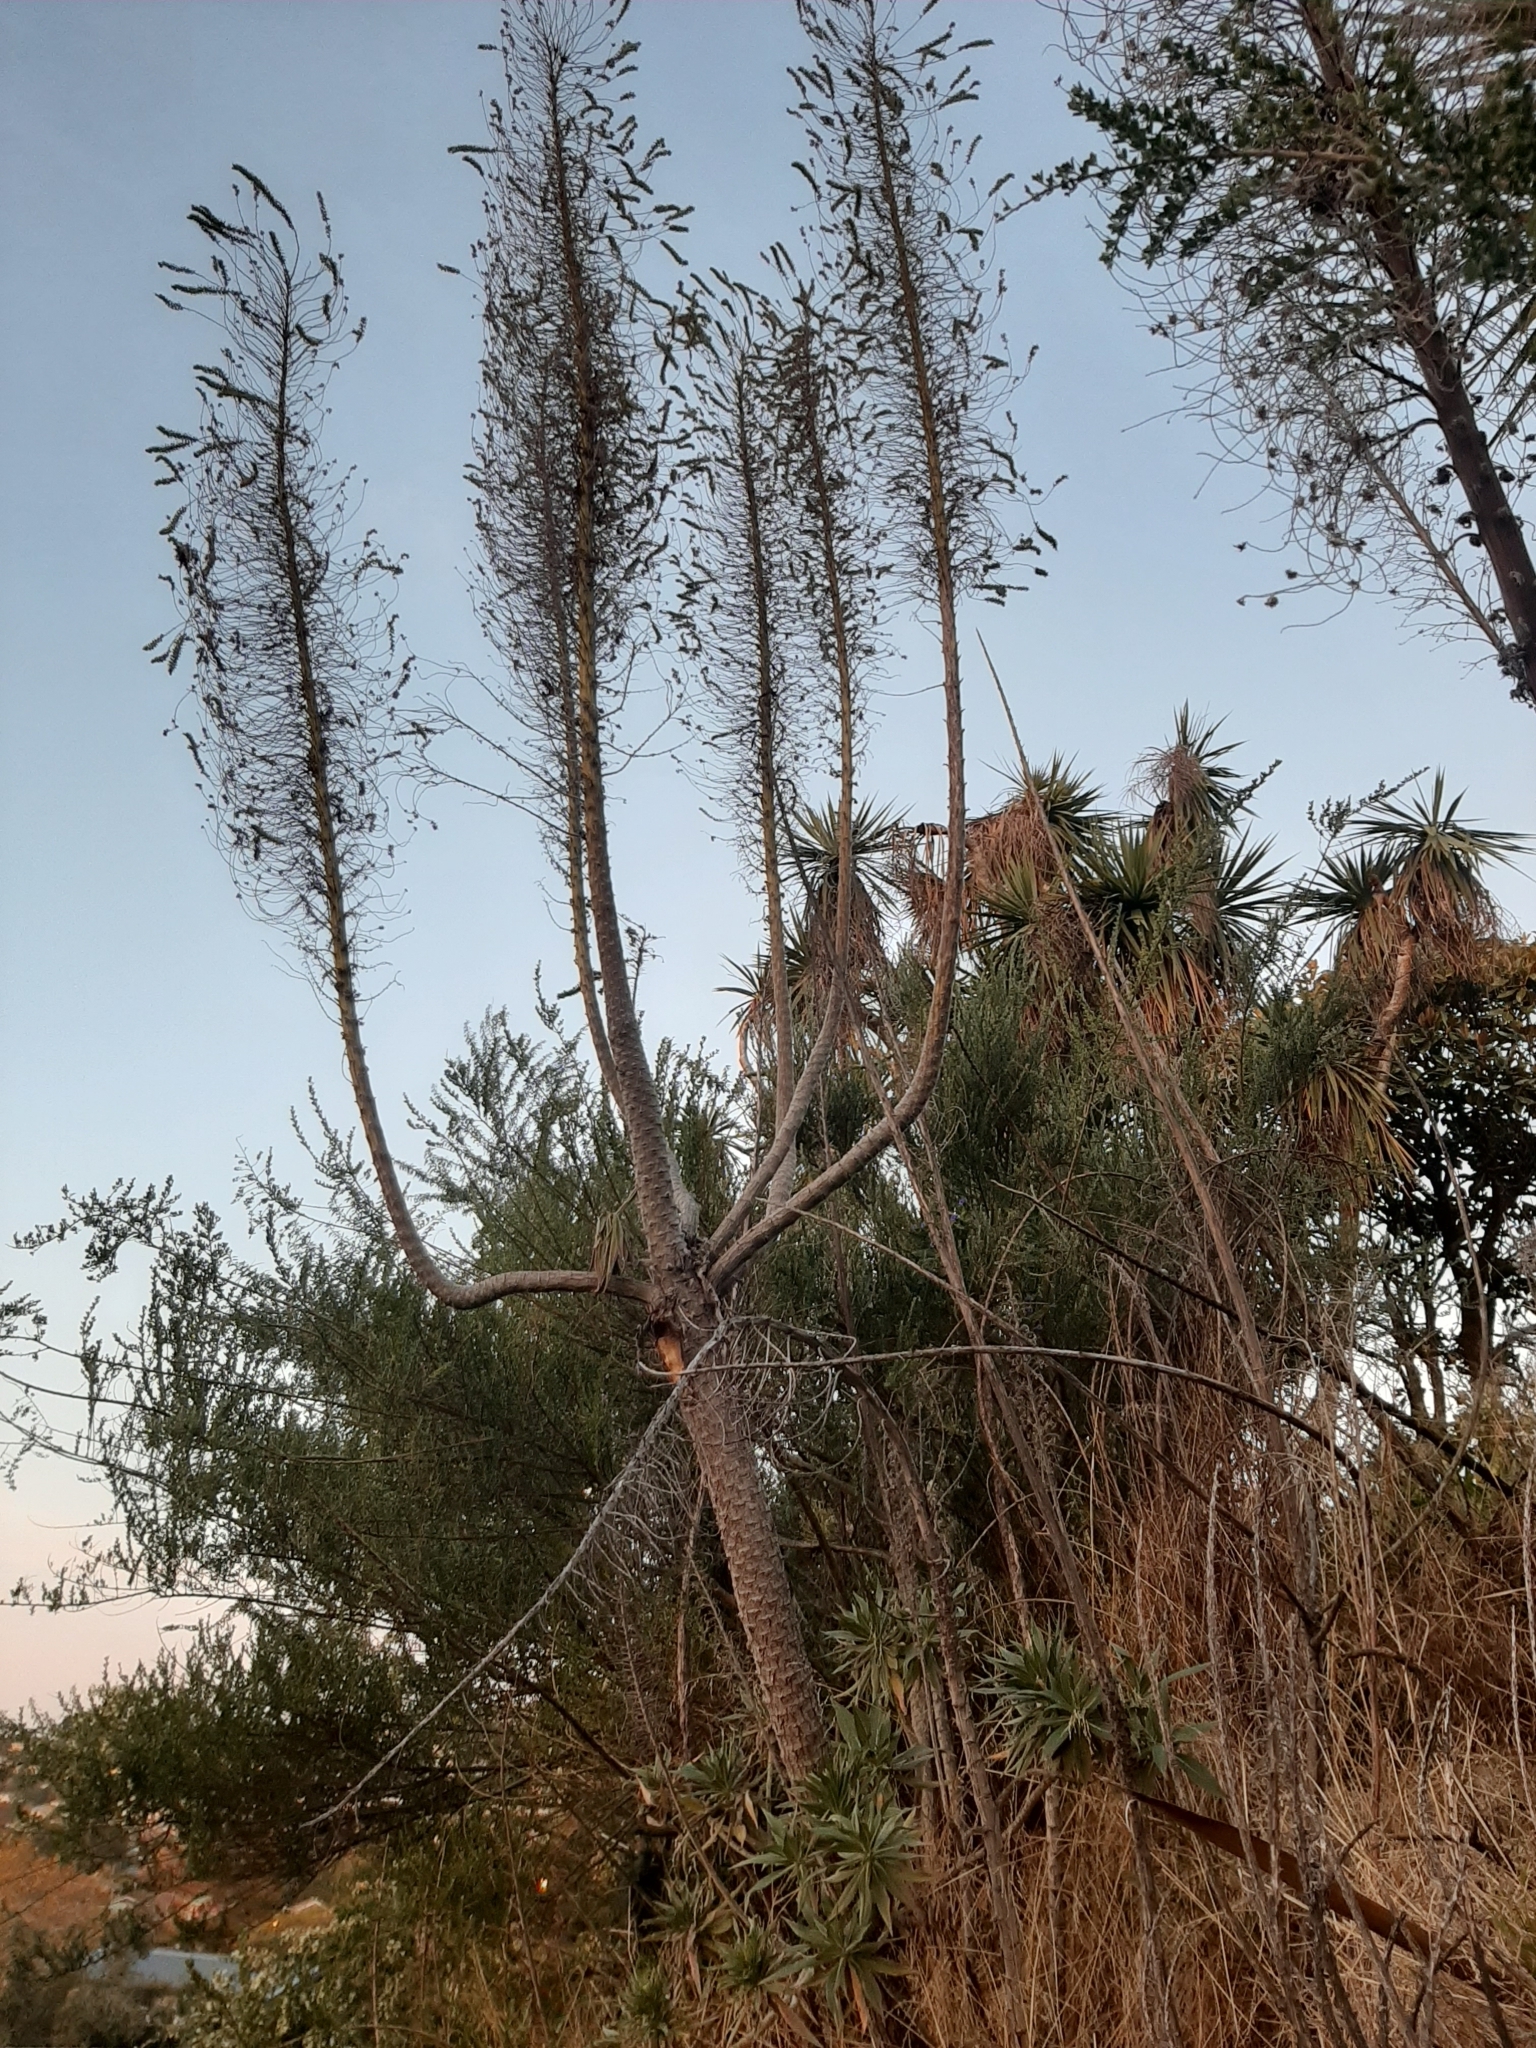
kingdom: Plantae
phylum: Tracheophyta
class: Magnoliopsida
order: Boraginales
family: Boraginaceae
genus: Echium
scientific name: Echium pininana
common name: Giant viper's-bugloss
